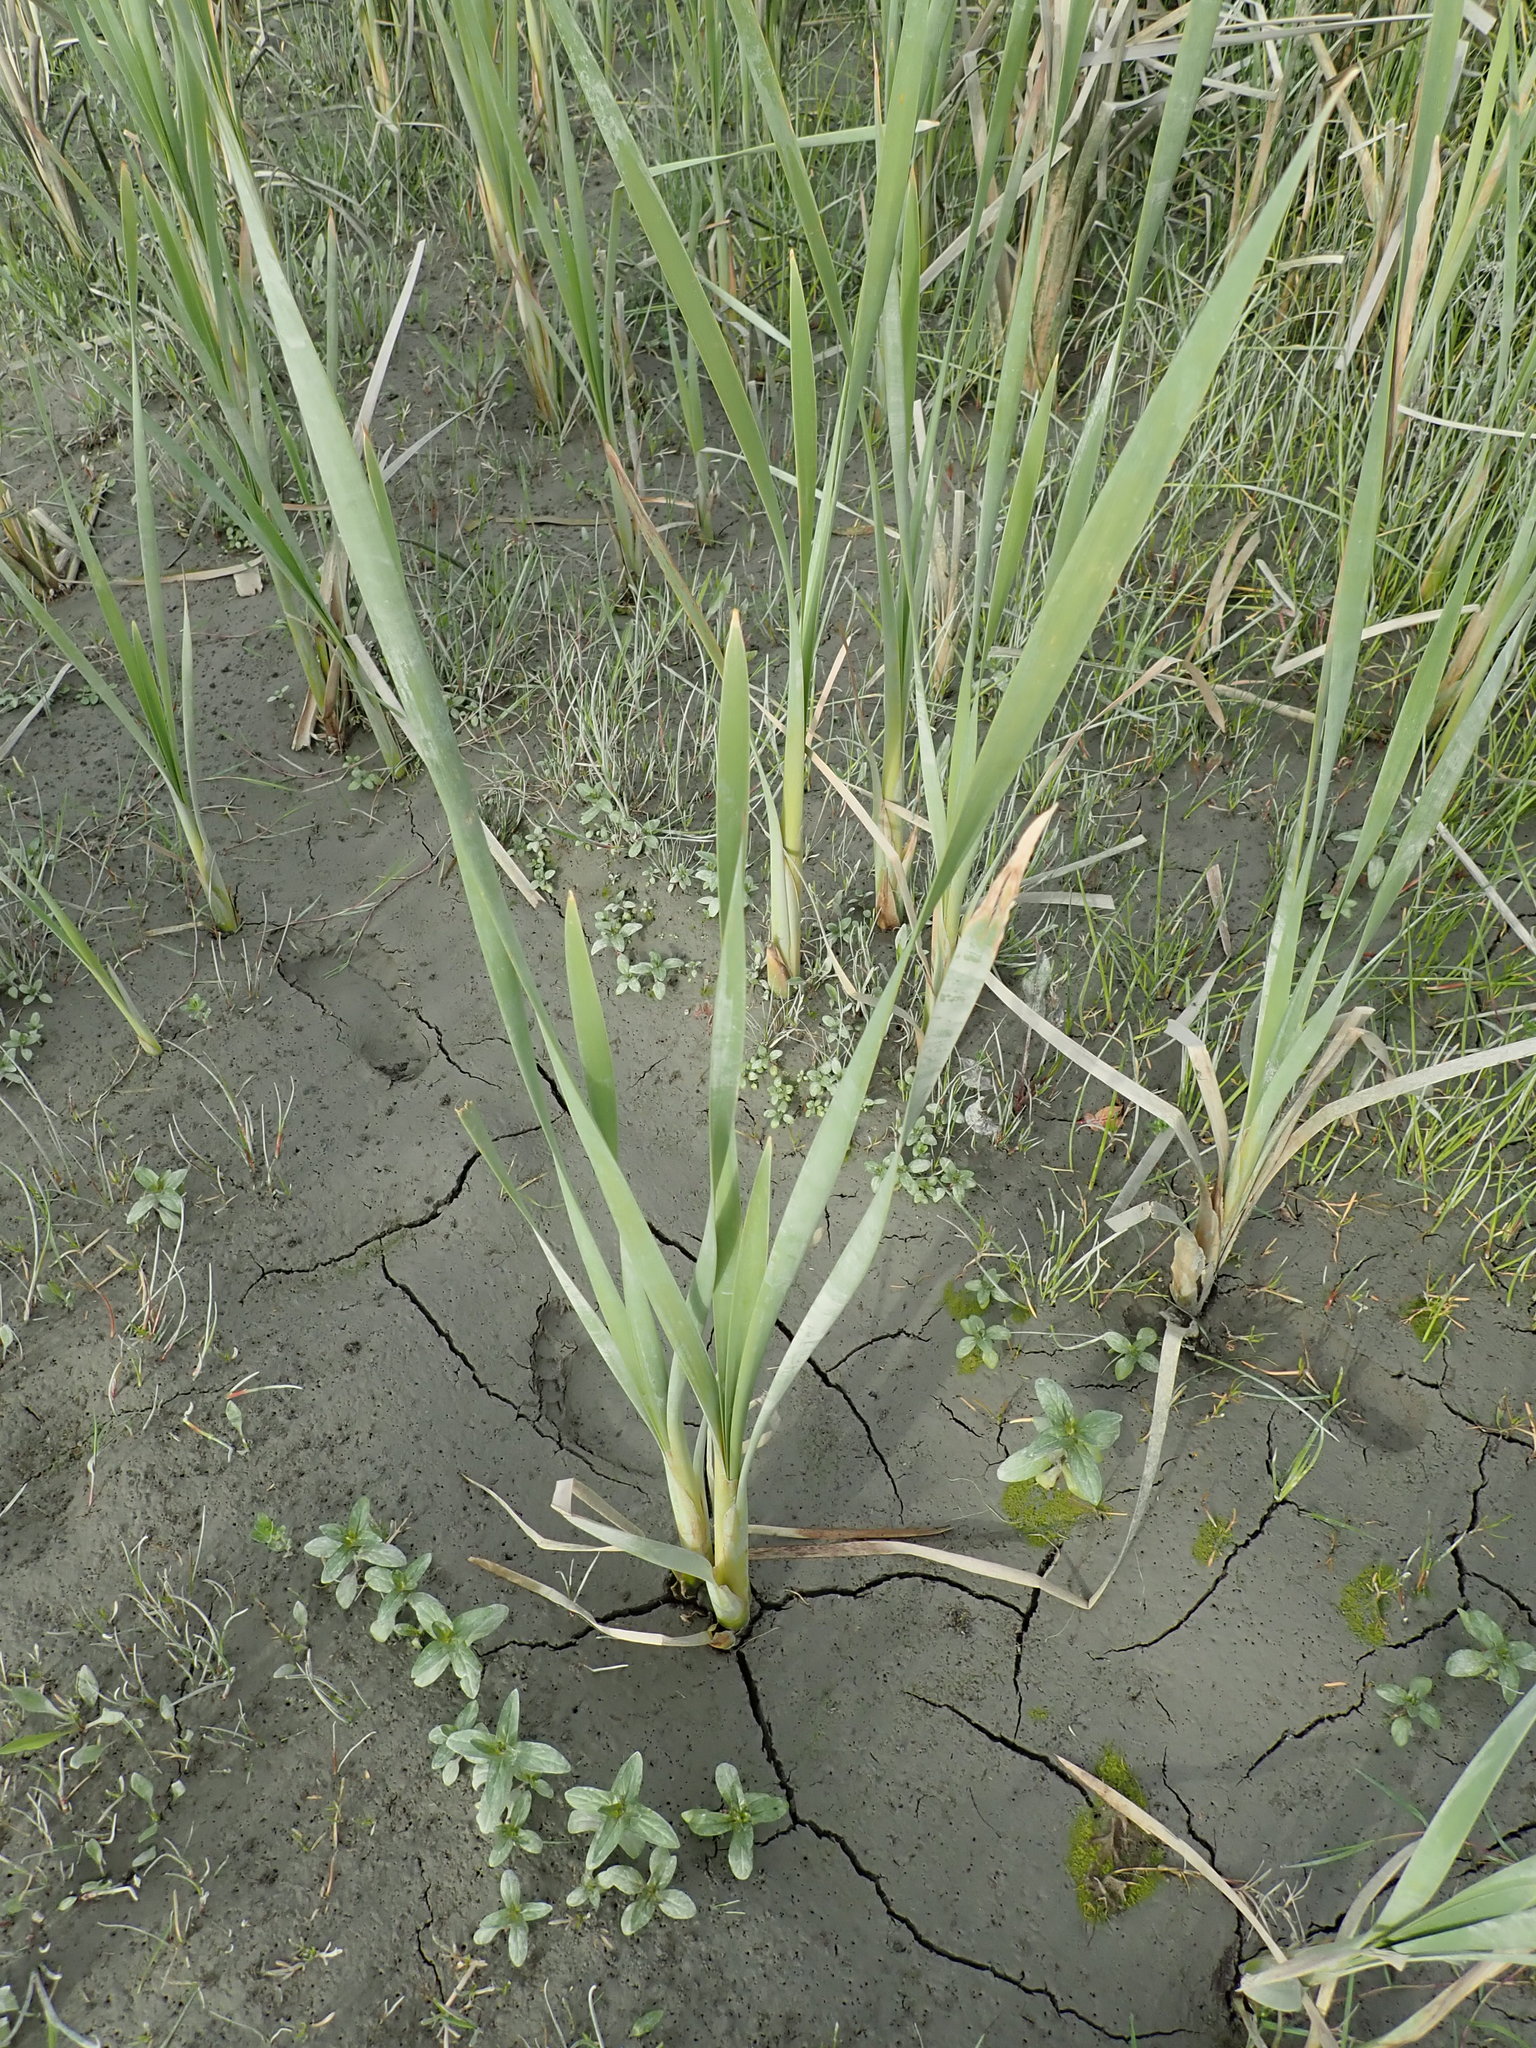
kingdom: Plantae
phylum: Tracheophyta
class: Liliopsida
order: Poales
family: Typhaceae
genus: Typha
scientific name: Typha orientalis
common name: Bullrush
